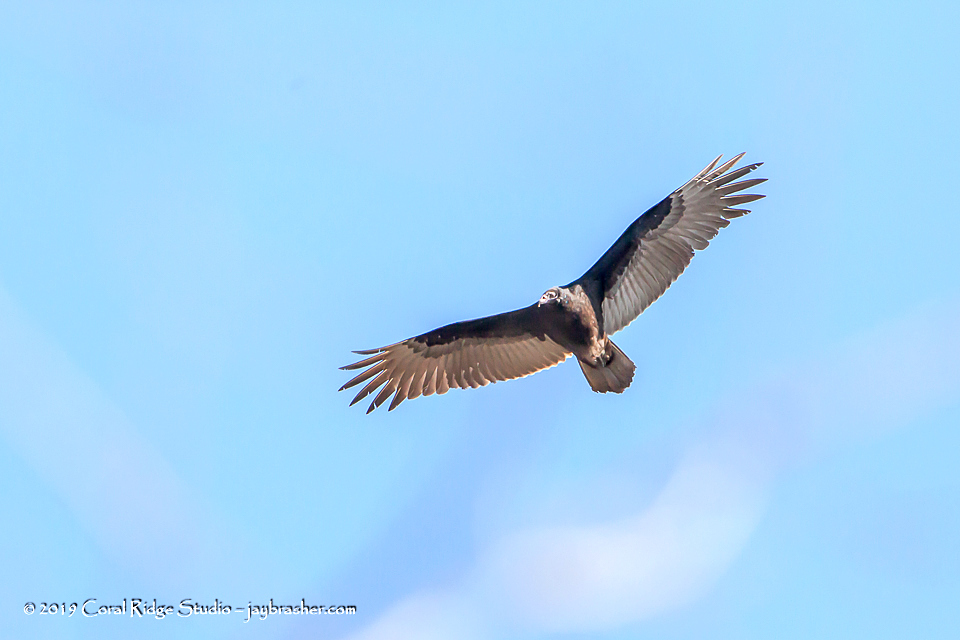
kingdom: Animalia
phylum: Chordata
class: Aves
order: Accipitriformes
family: Cathartidae
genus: Cathartes
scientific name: Cathartes aura
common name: Turkey vulture
